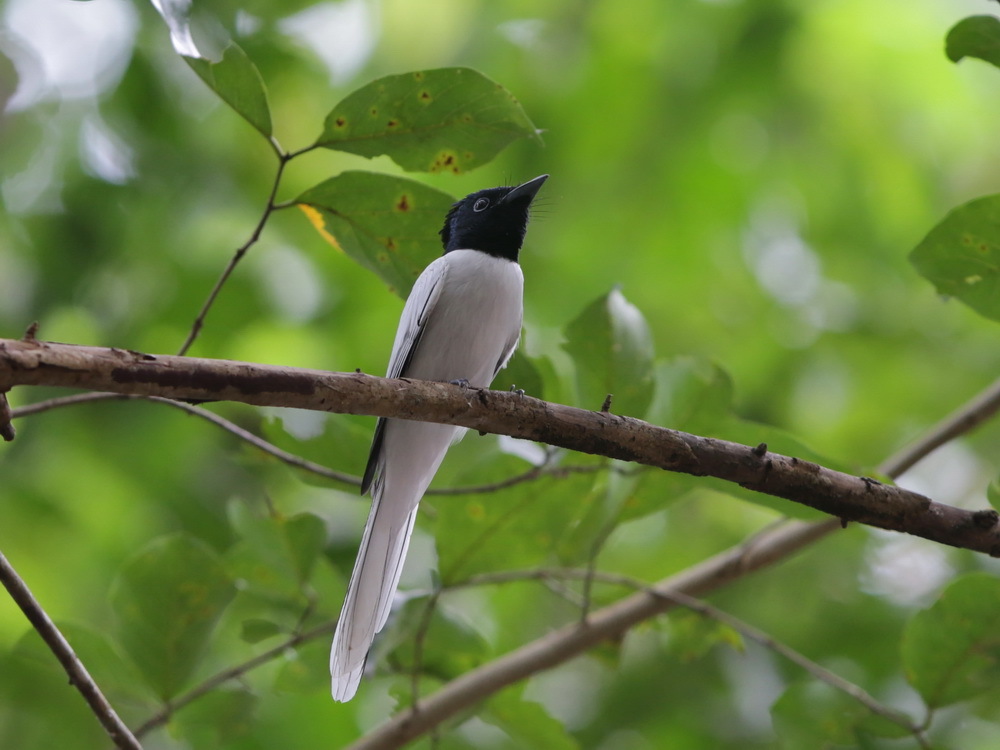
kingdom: Animalia
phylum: Chordata
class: Aves
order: Passeriformes
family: Monarchidae
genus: Terpsiphone
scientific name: Terpsiphone paradisi
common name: Indian paradise flycatcher
